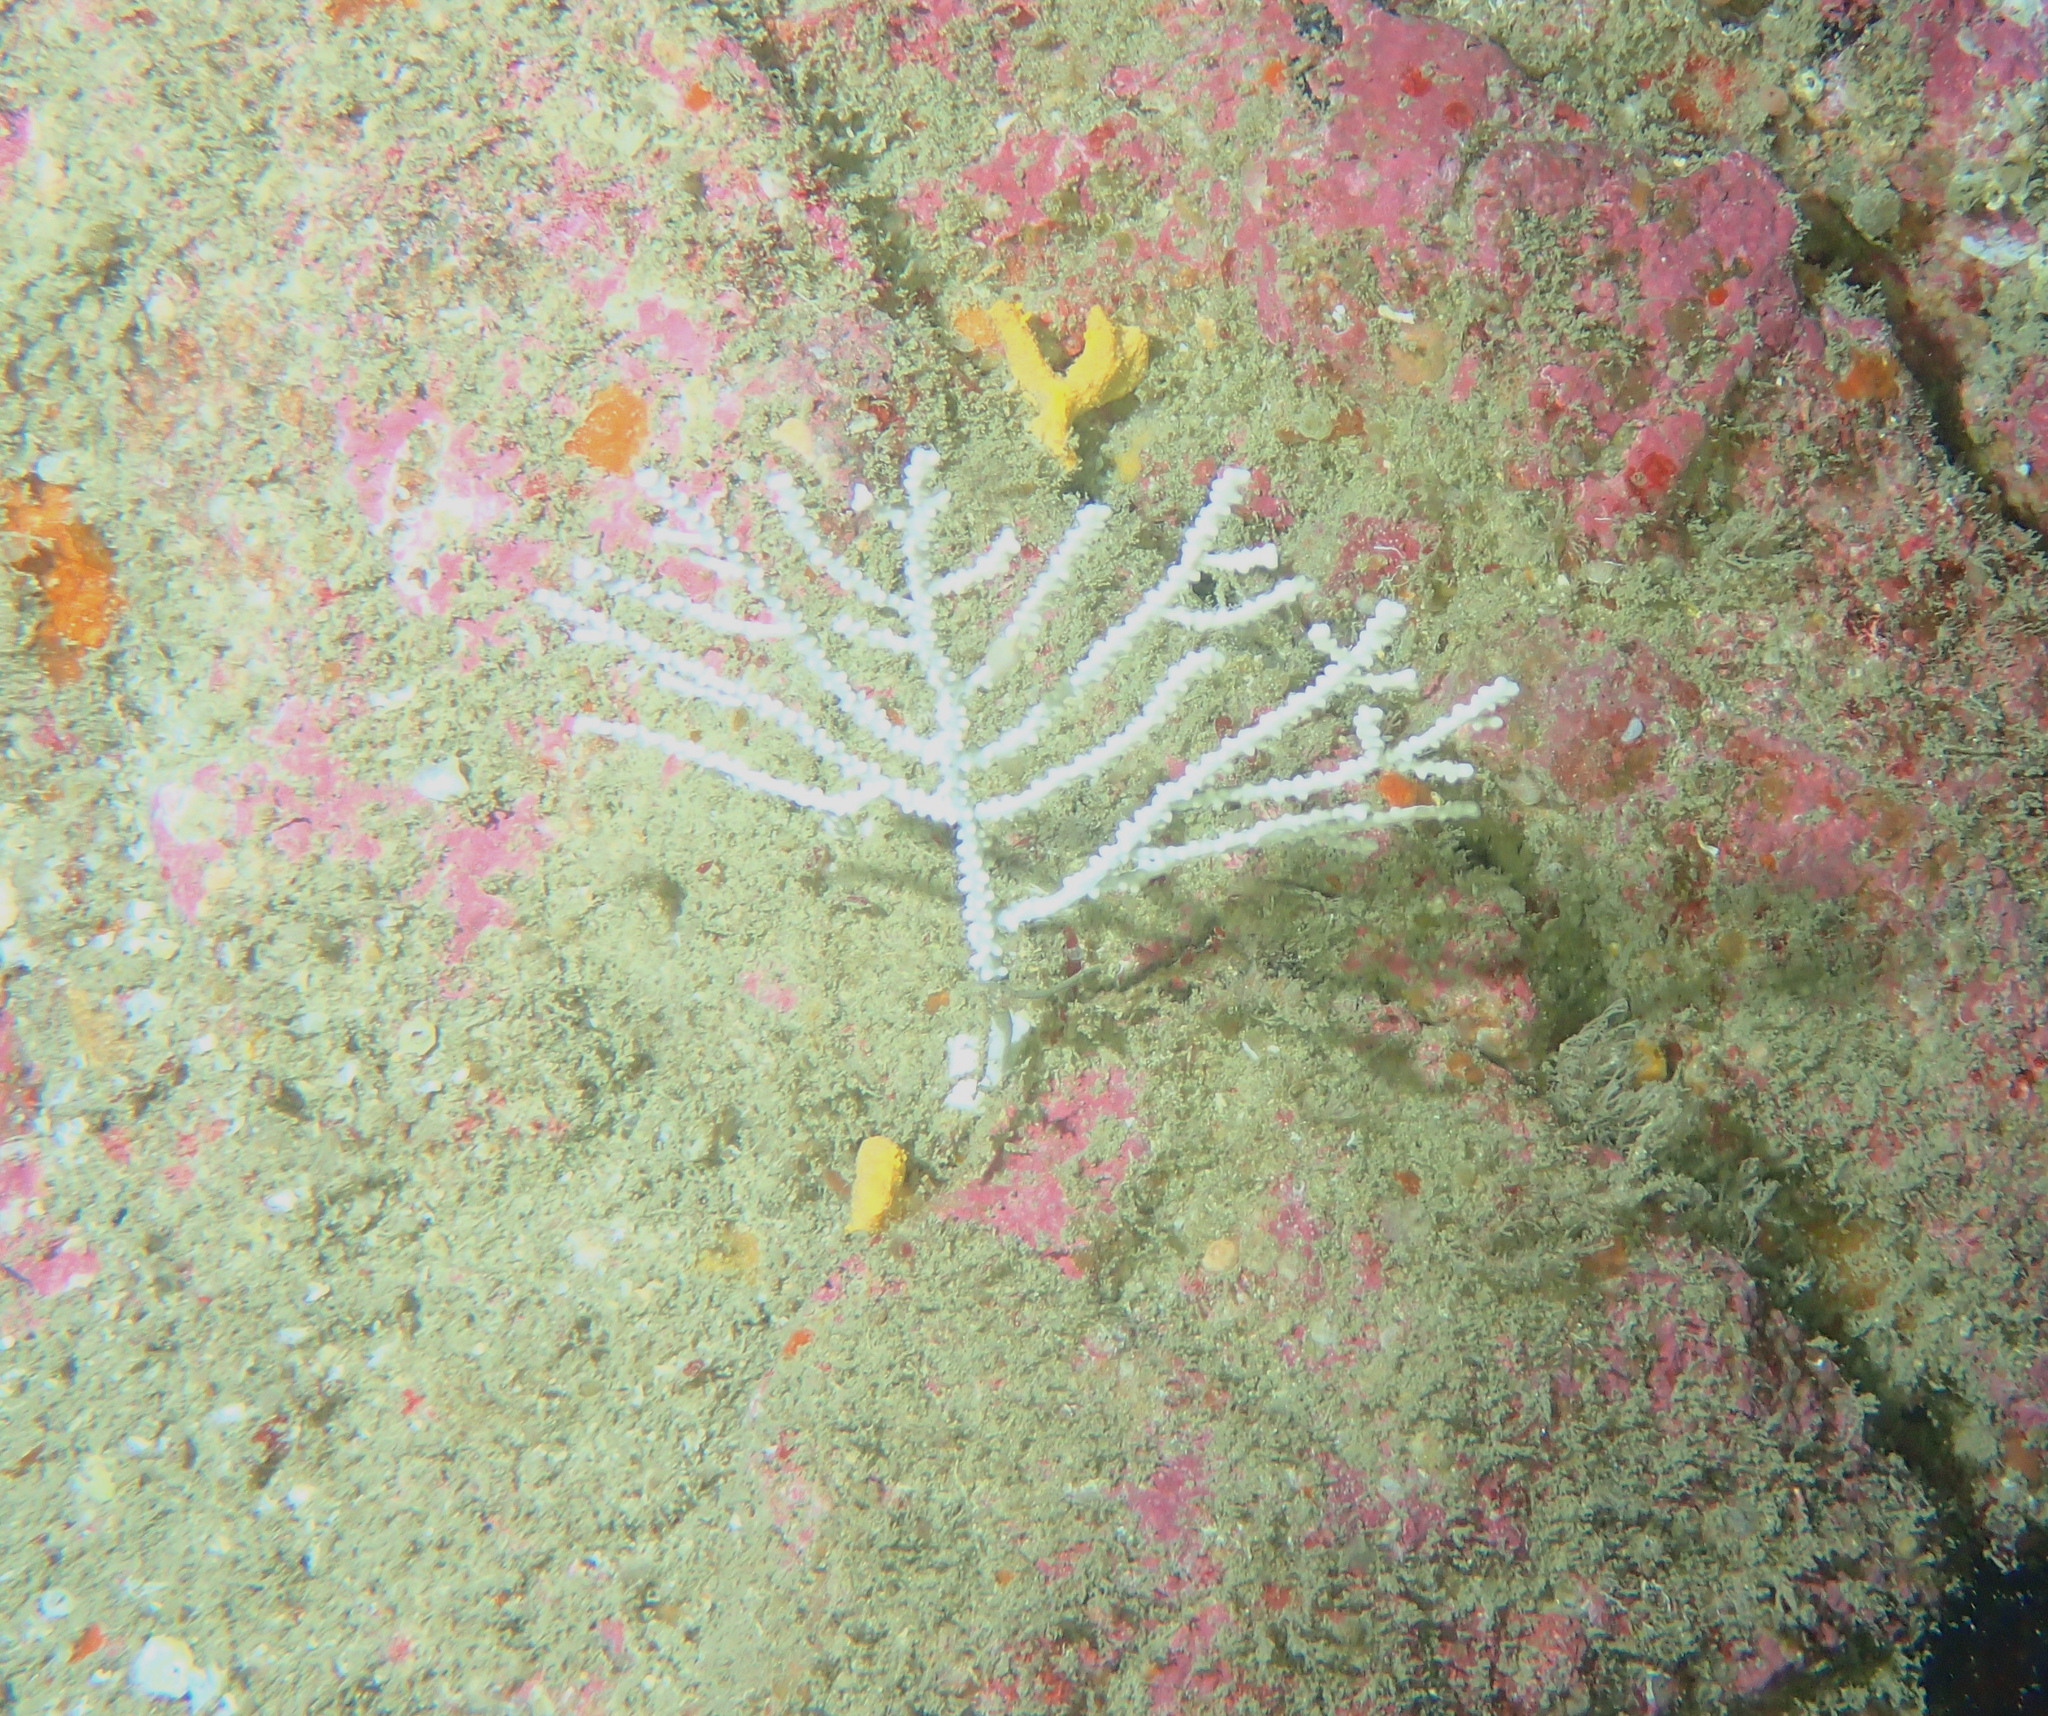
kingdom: Animalia
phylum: Cnidaria
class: Anthozoa
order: Malacalcyonacea
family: Eunicellidae
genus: Eunicella
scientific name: Eunicella verrucosa
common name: Pink sea-fan
